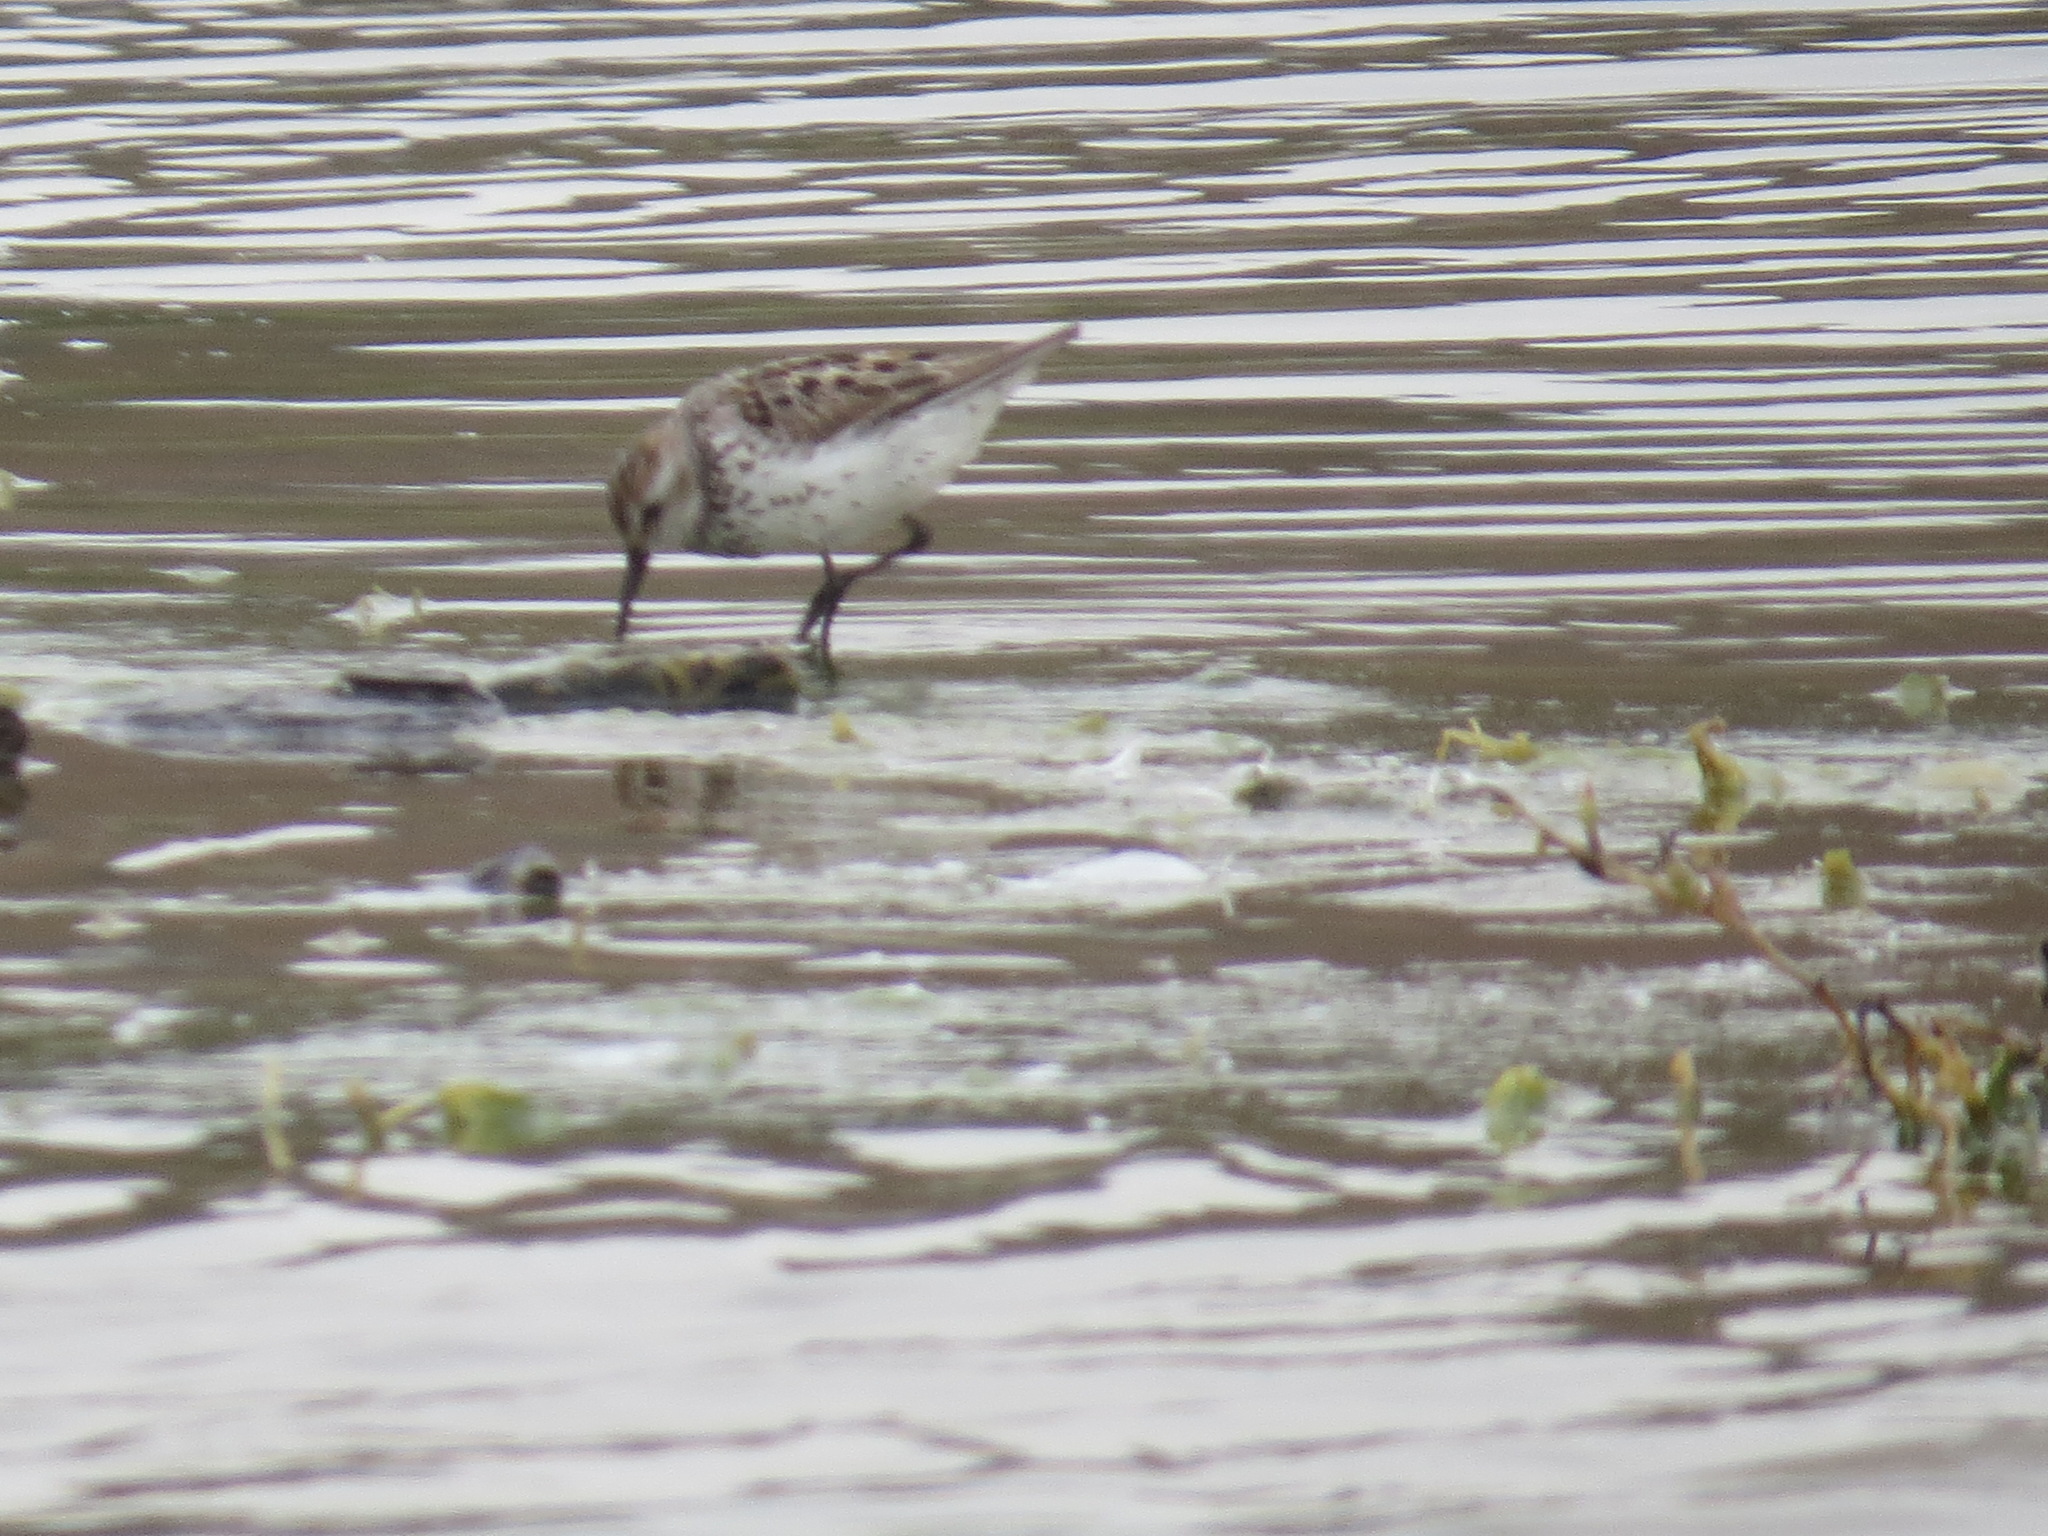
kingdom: Animalia
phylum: Chordata
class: Aves
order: Charadriiformes
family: Scolopacidae
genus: Calidris
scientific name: Calidris mauri
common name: Western sandpiper
